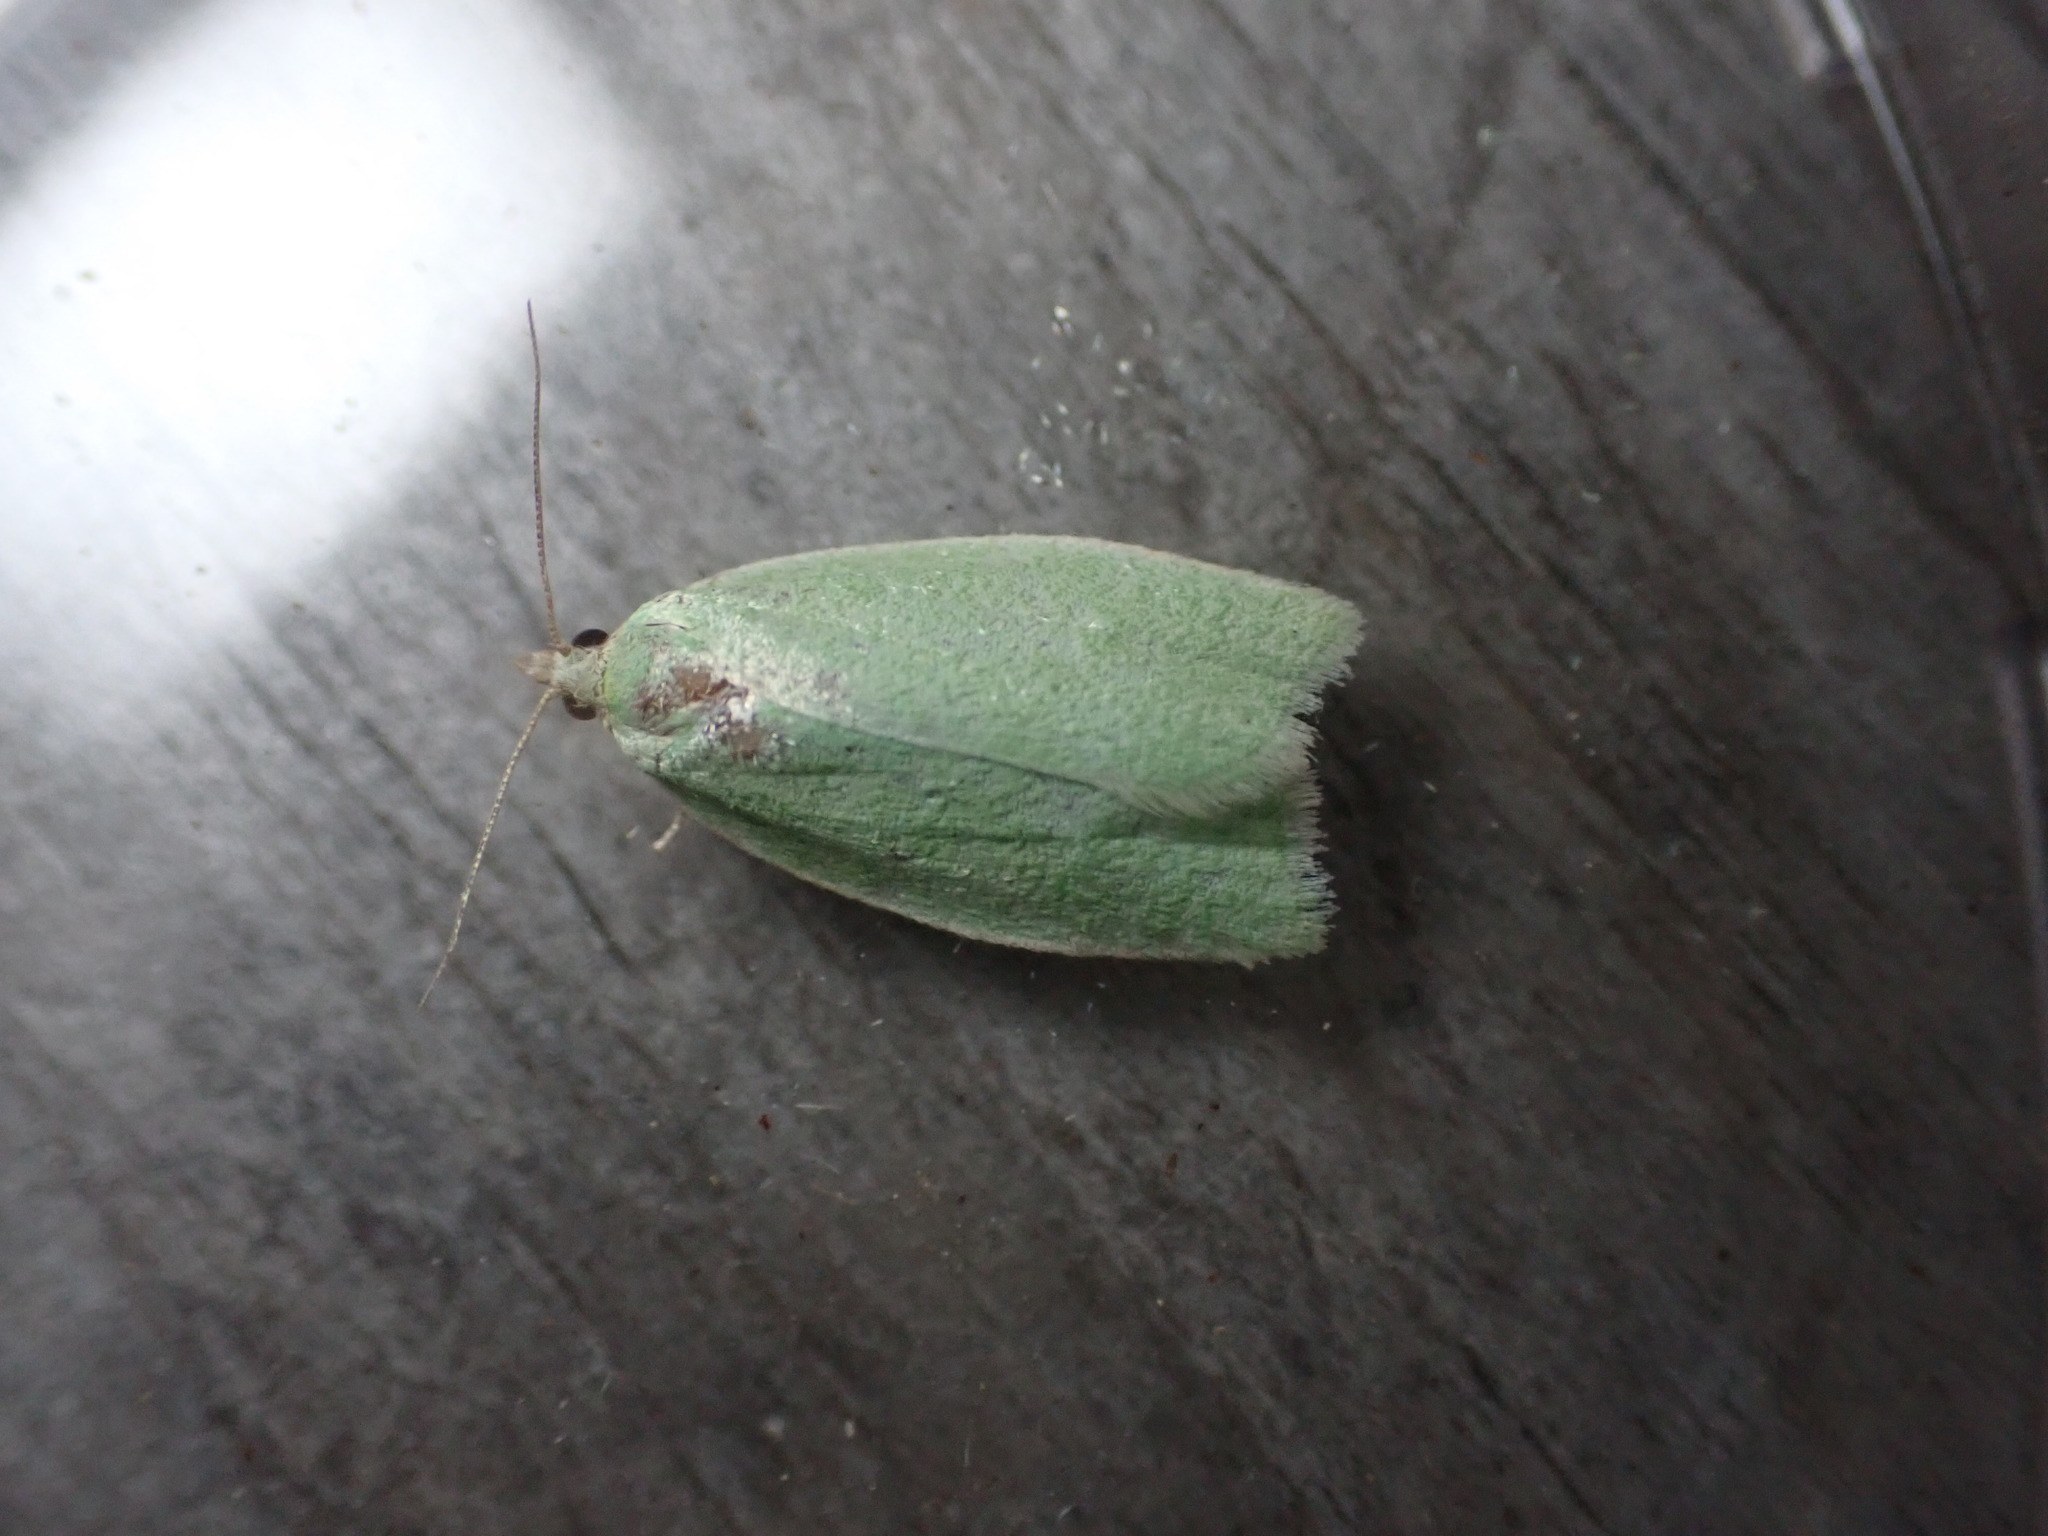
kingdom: Animalia
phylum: Arthropoda
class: Insecta
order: Lepidoptera
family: Tortricidae
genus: Tortrix
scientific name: Tortrix viridana
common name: Green oak tortrix
